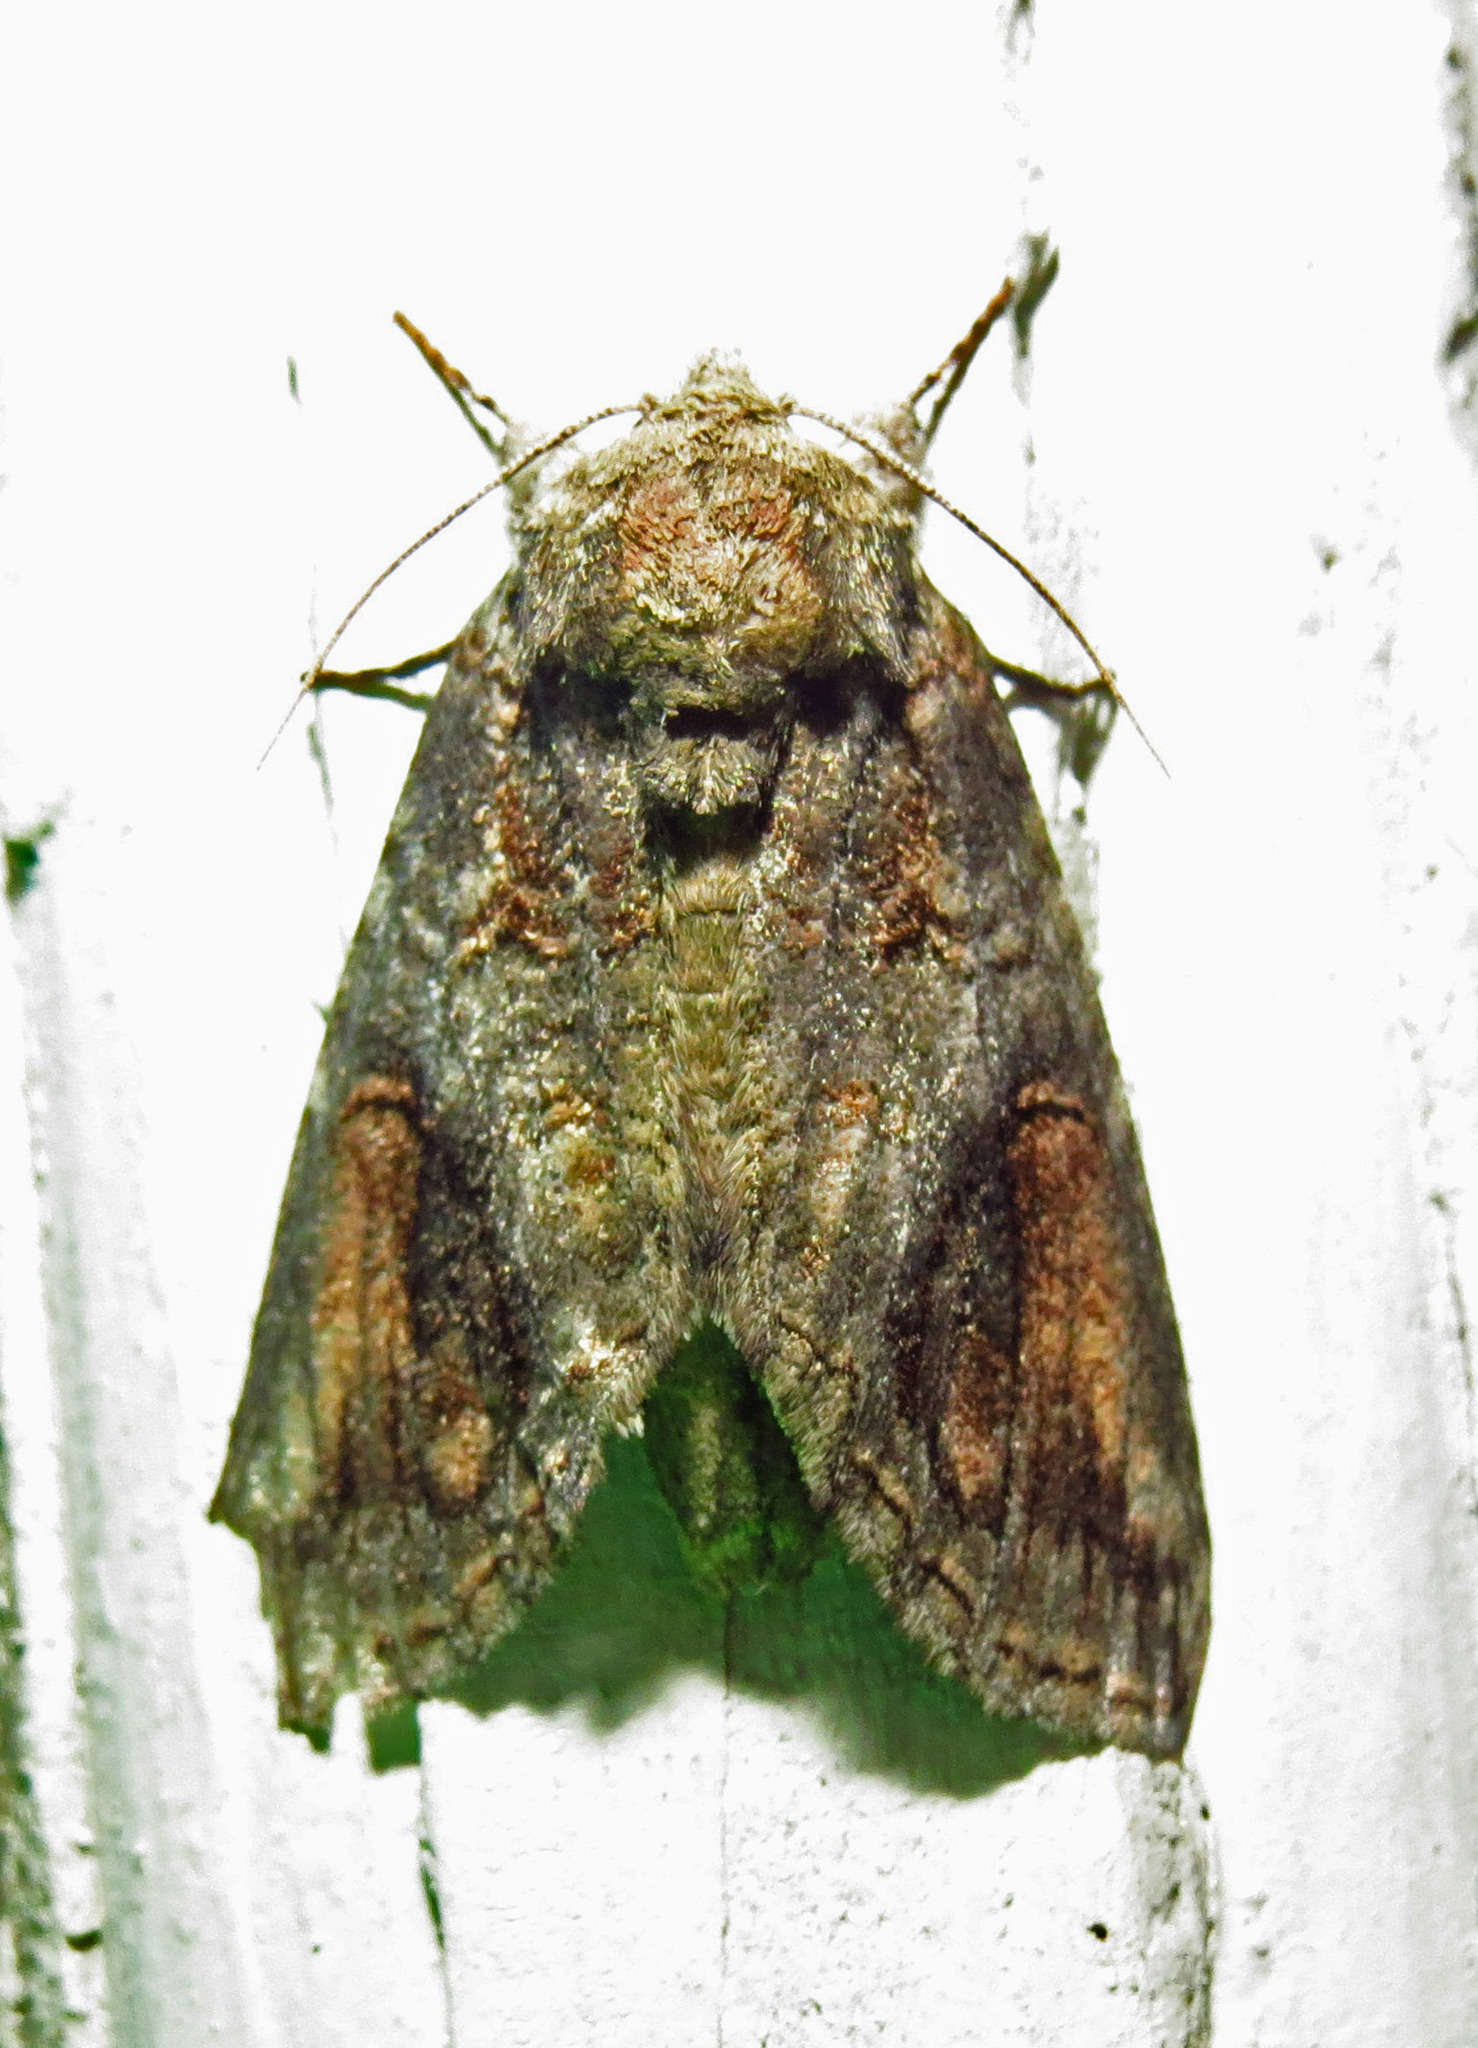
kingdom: Animalia
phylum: Arthropoda
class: Insecta
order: Lepidoptera
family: Notodontidae
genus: Heterocampa
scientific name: Heterocampa obliqua
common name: Oblique heterocampa
